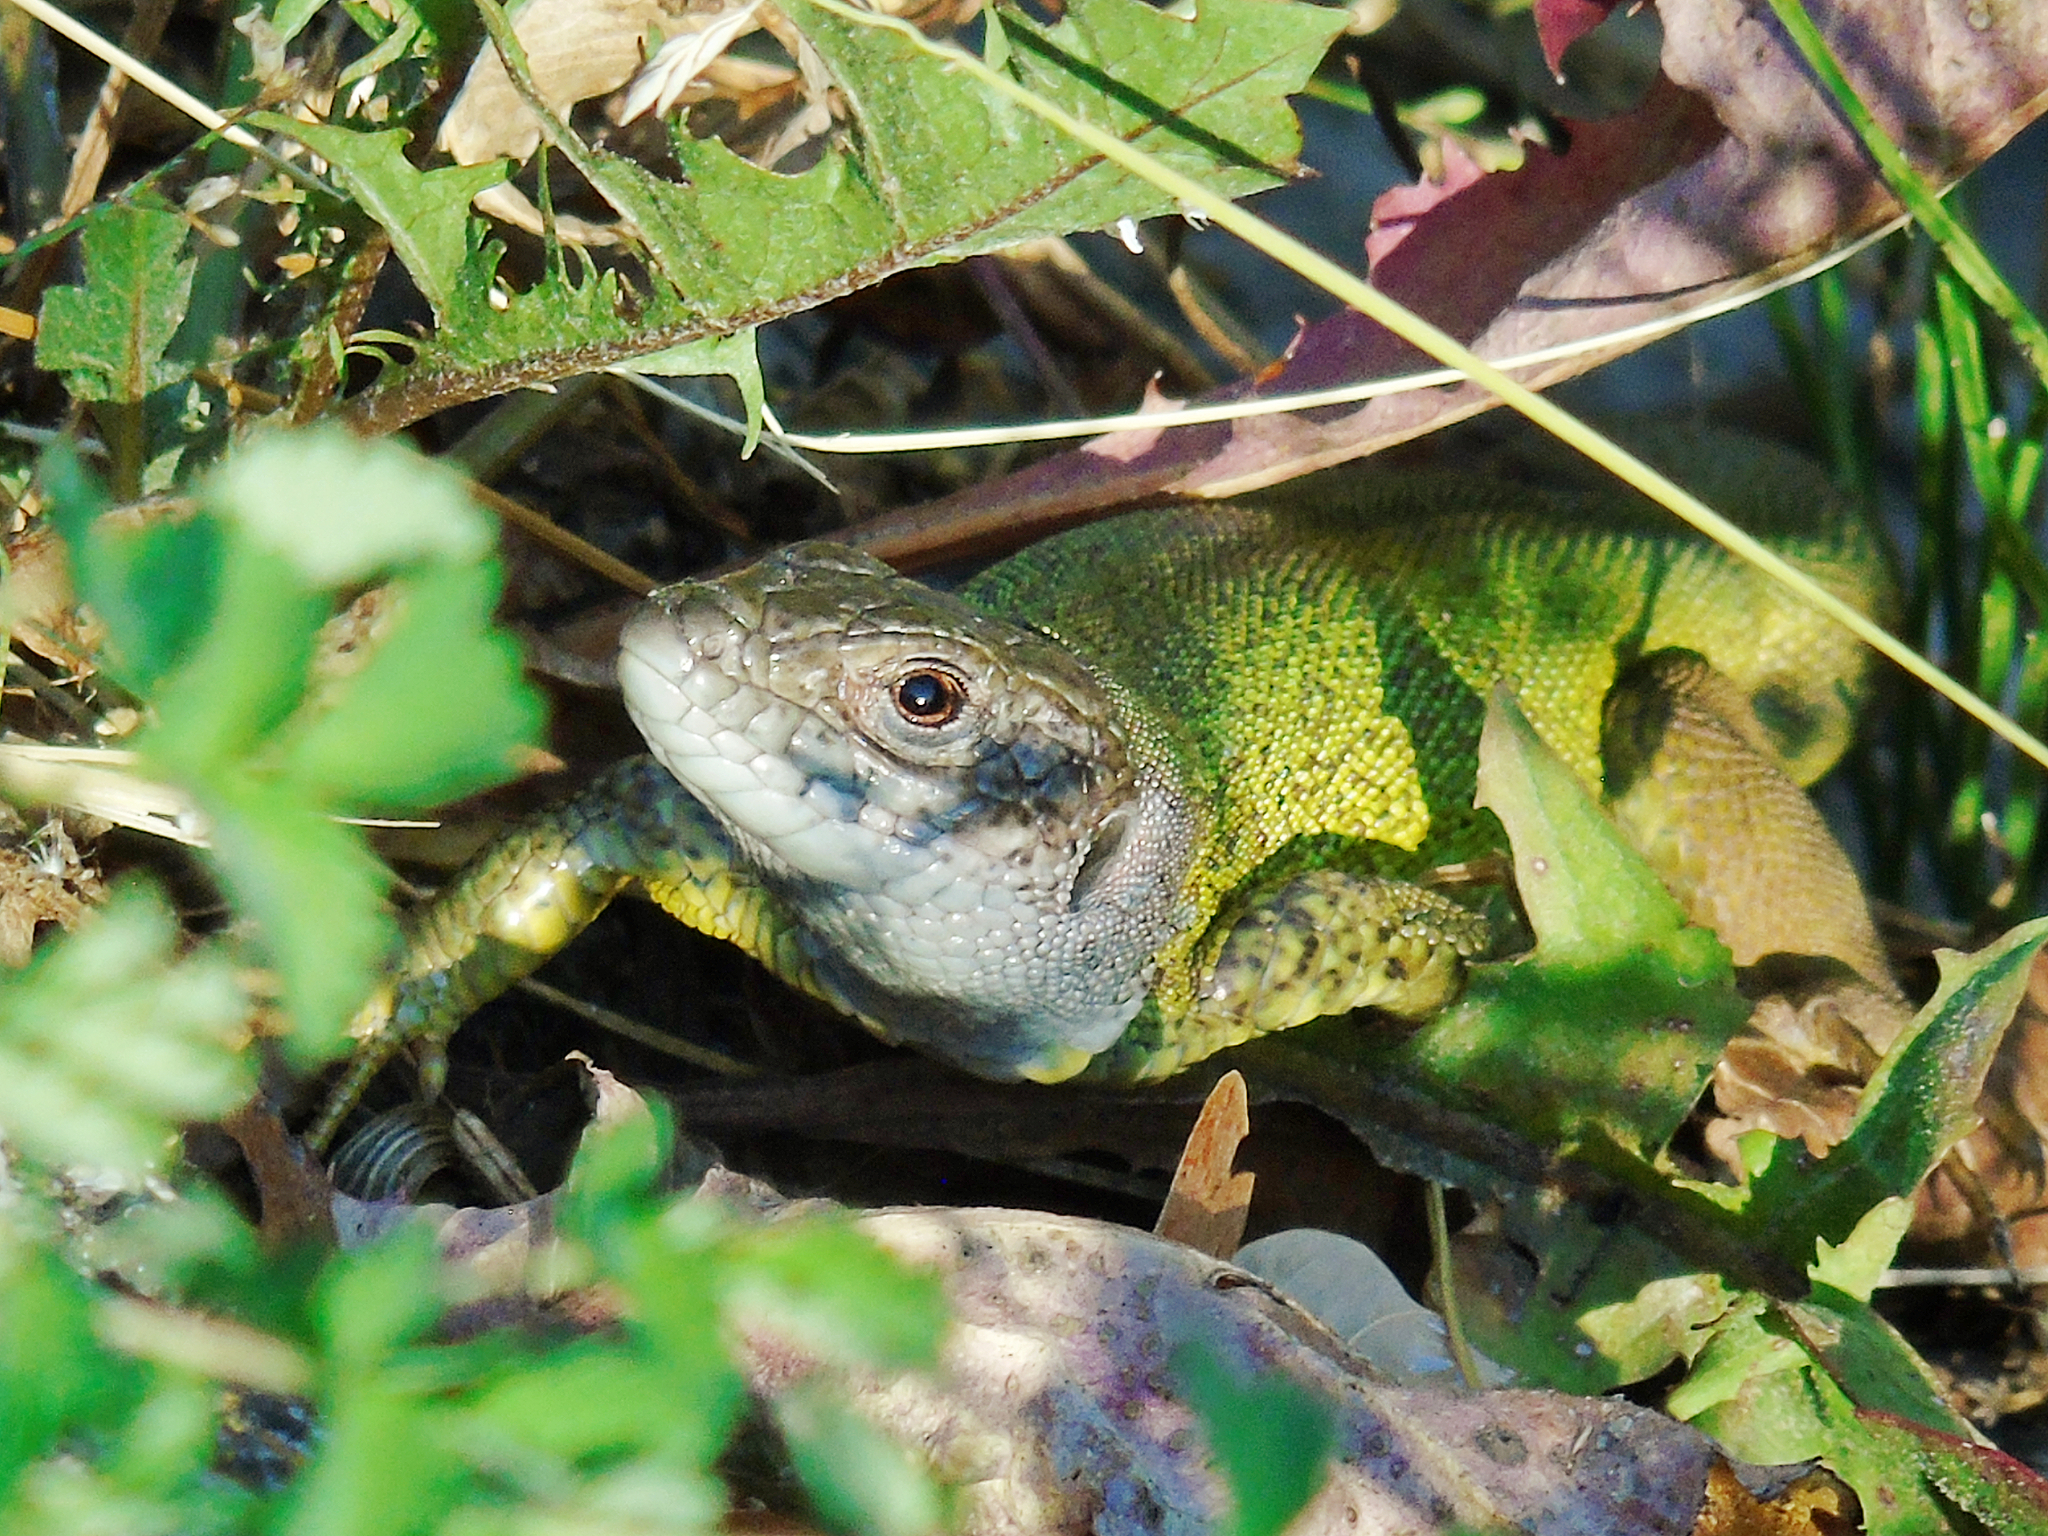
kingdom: Animalia
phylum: Chordata
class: Squamata
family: Lacertidae
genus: Lacerta
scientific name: Lacerta viridis
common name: European green lizard
